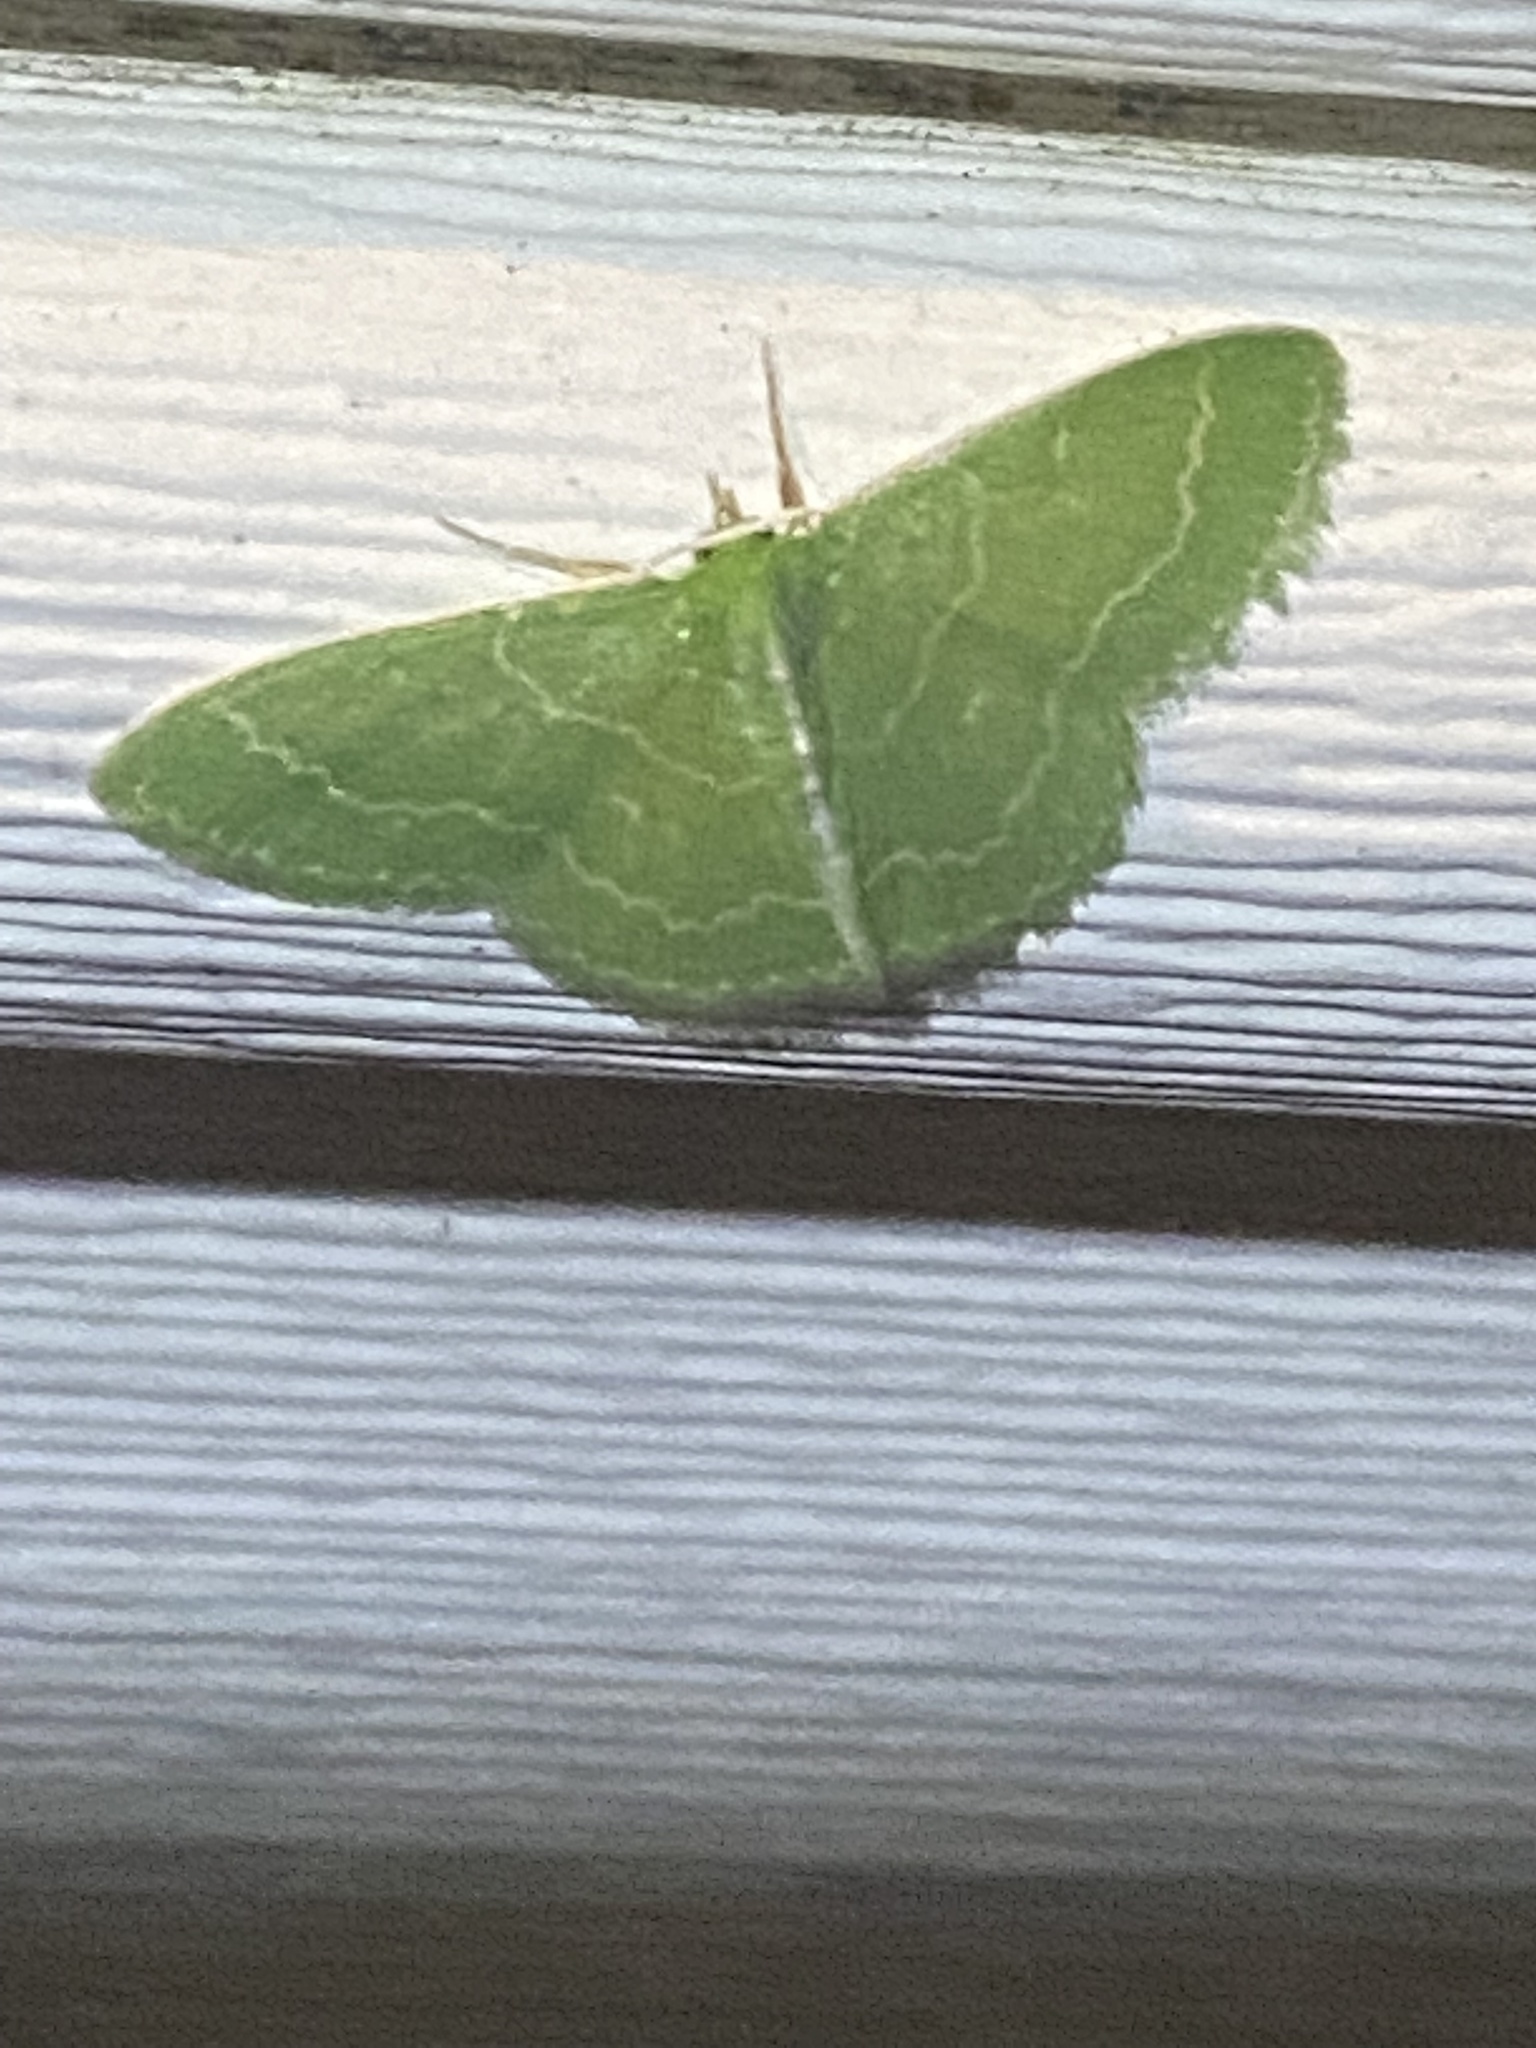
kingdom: Animalia
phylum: Arthropoda
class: Insecta
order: Lepidoptera
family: Geometridae
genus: Synchlora
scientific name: Synchlora aerata
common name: Wavy-lined emerald
